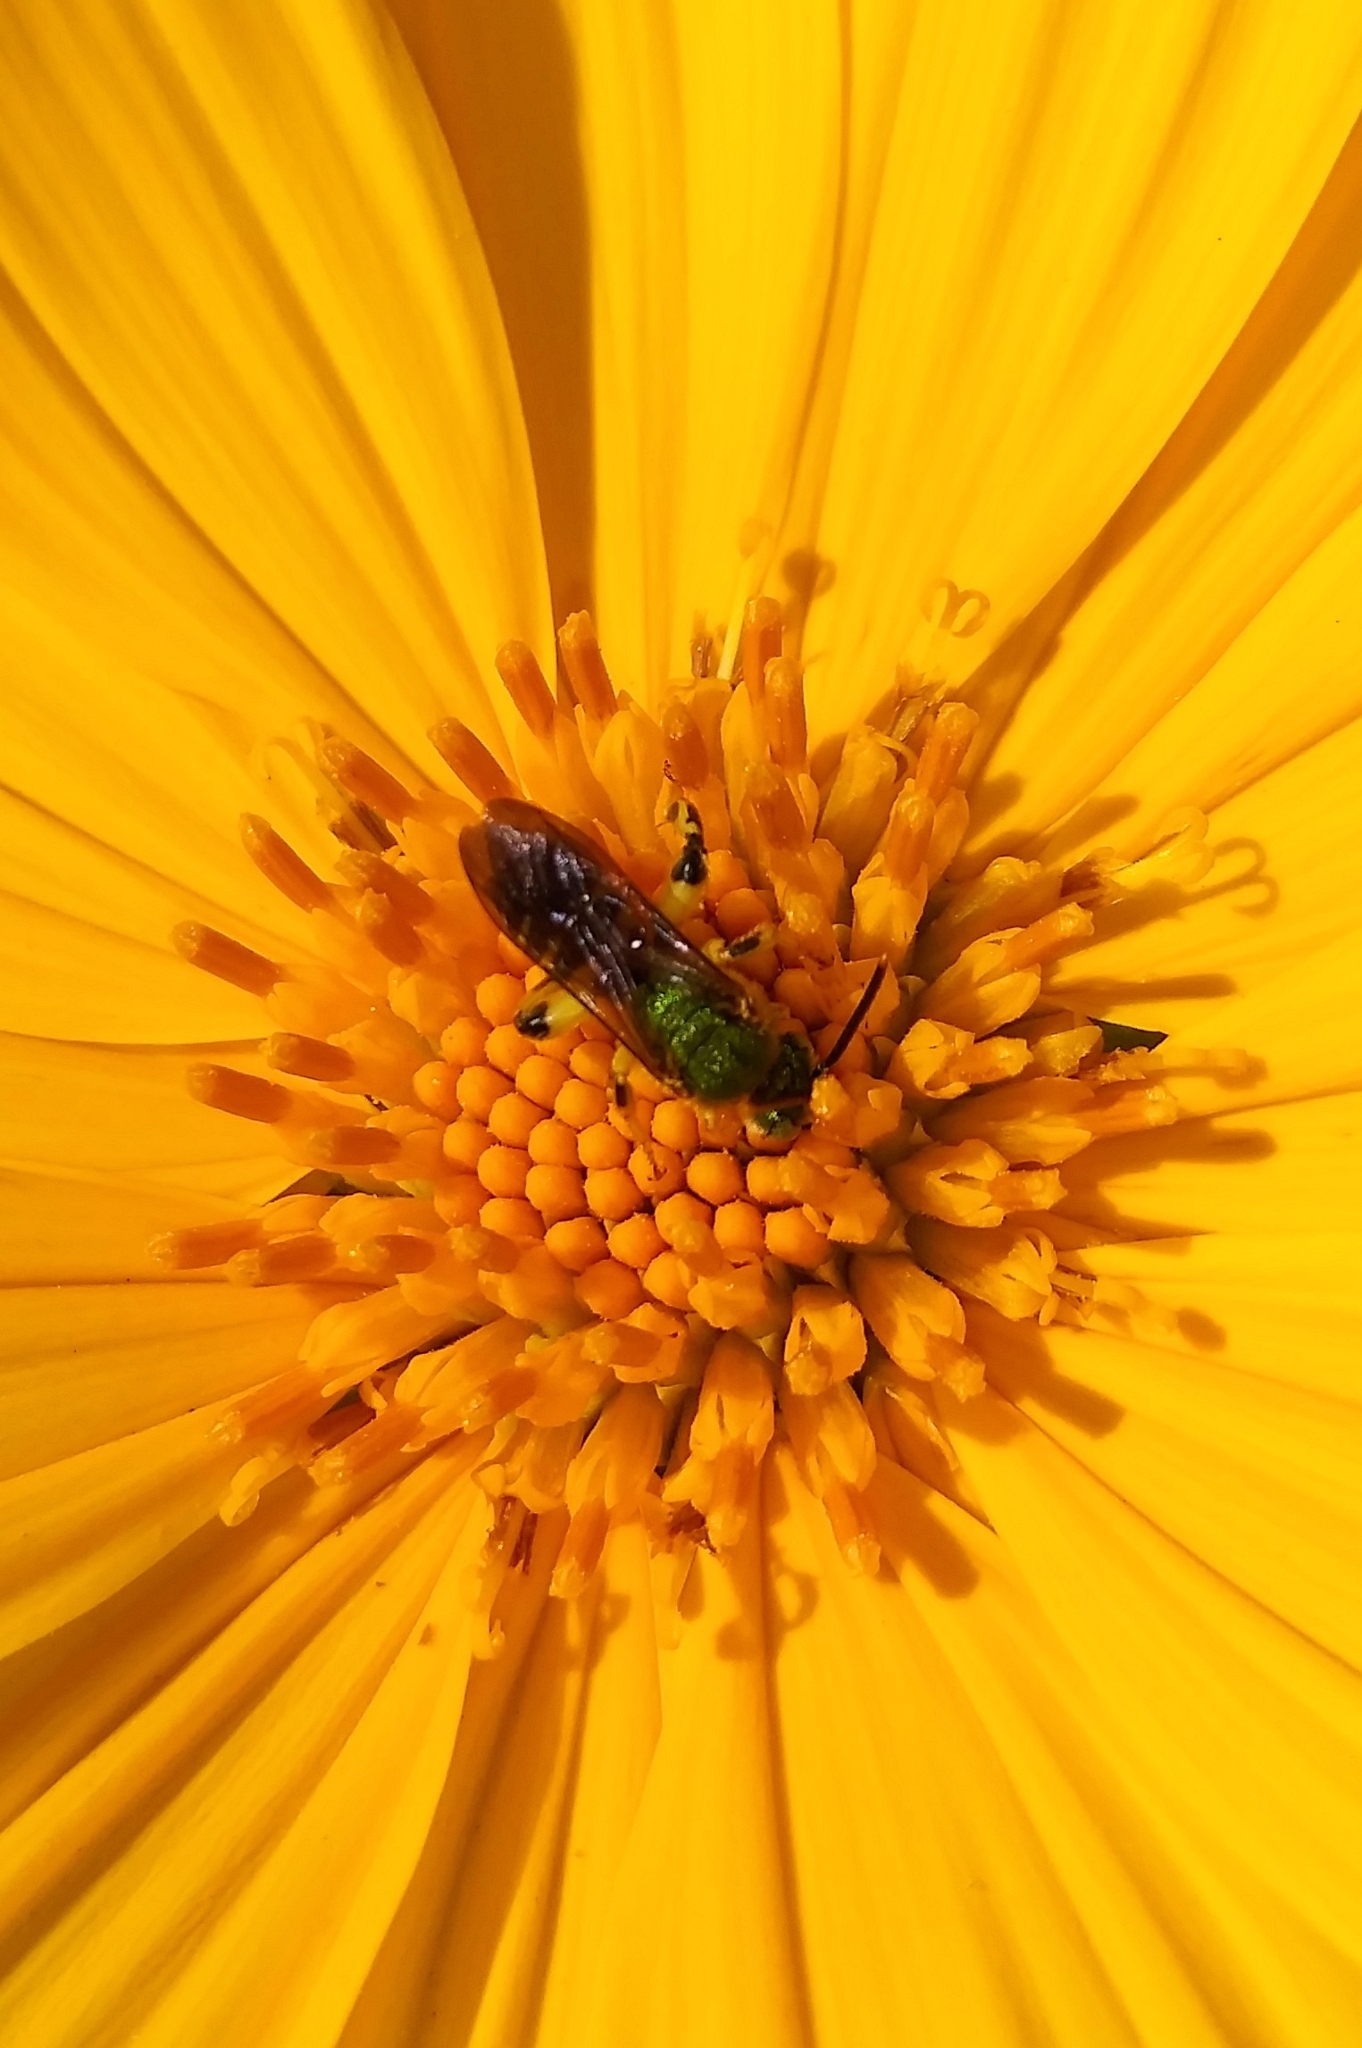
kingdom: Animalia
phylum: Arthropoda
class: Insecta
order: Hymenoptera
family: Halictidae
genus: Agapostemon
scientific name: Agapostemon splendens
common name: Brown-winged striped sweat bee
